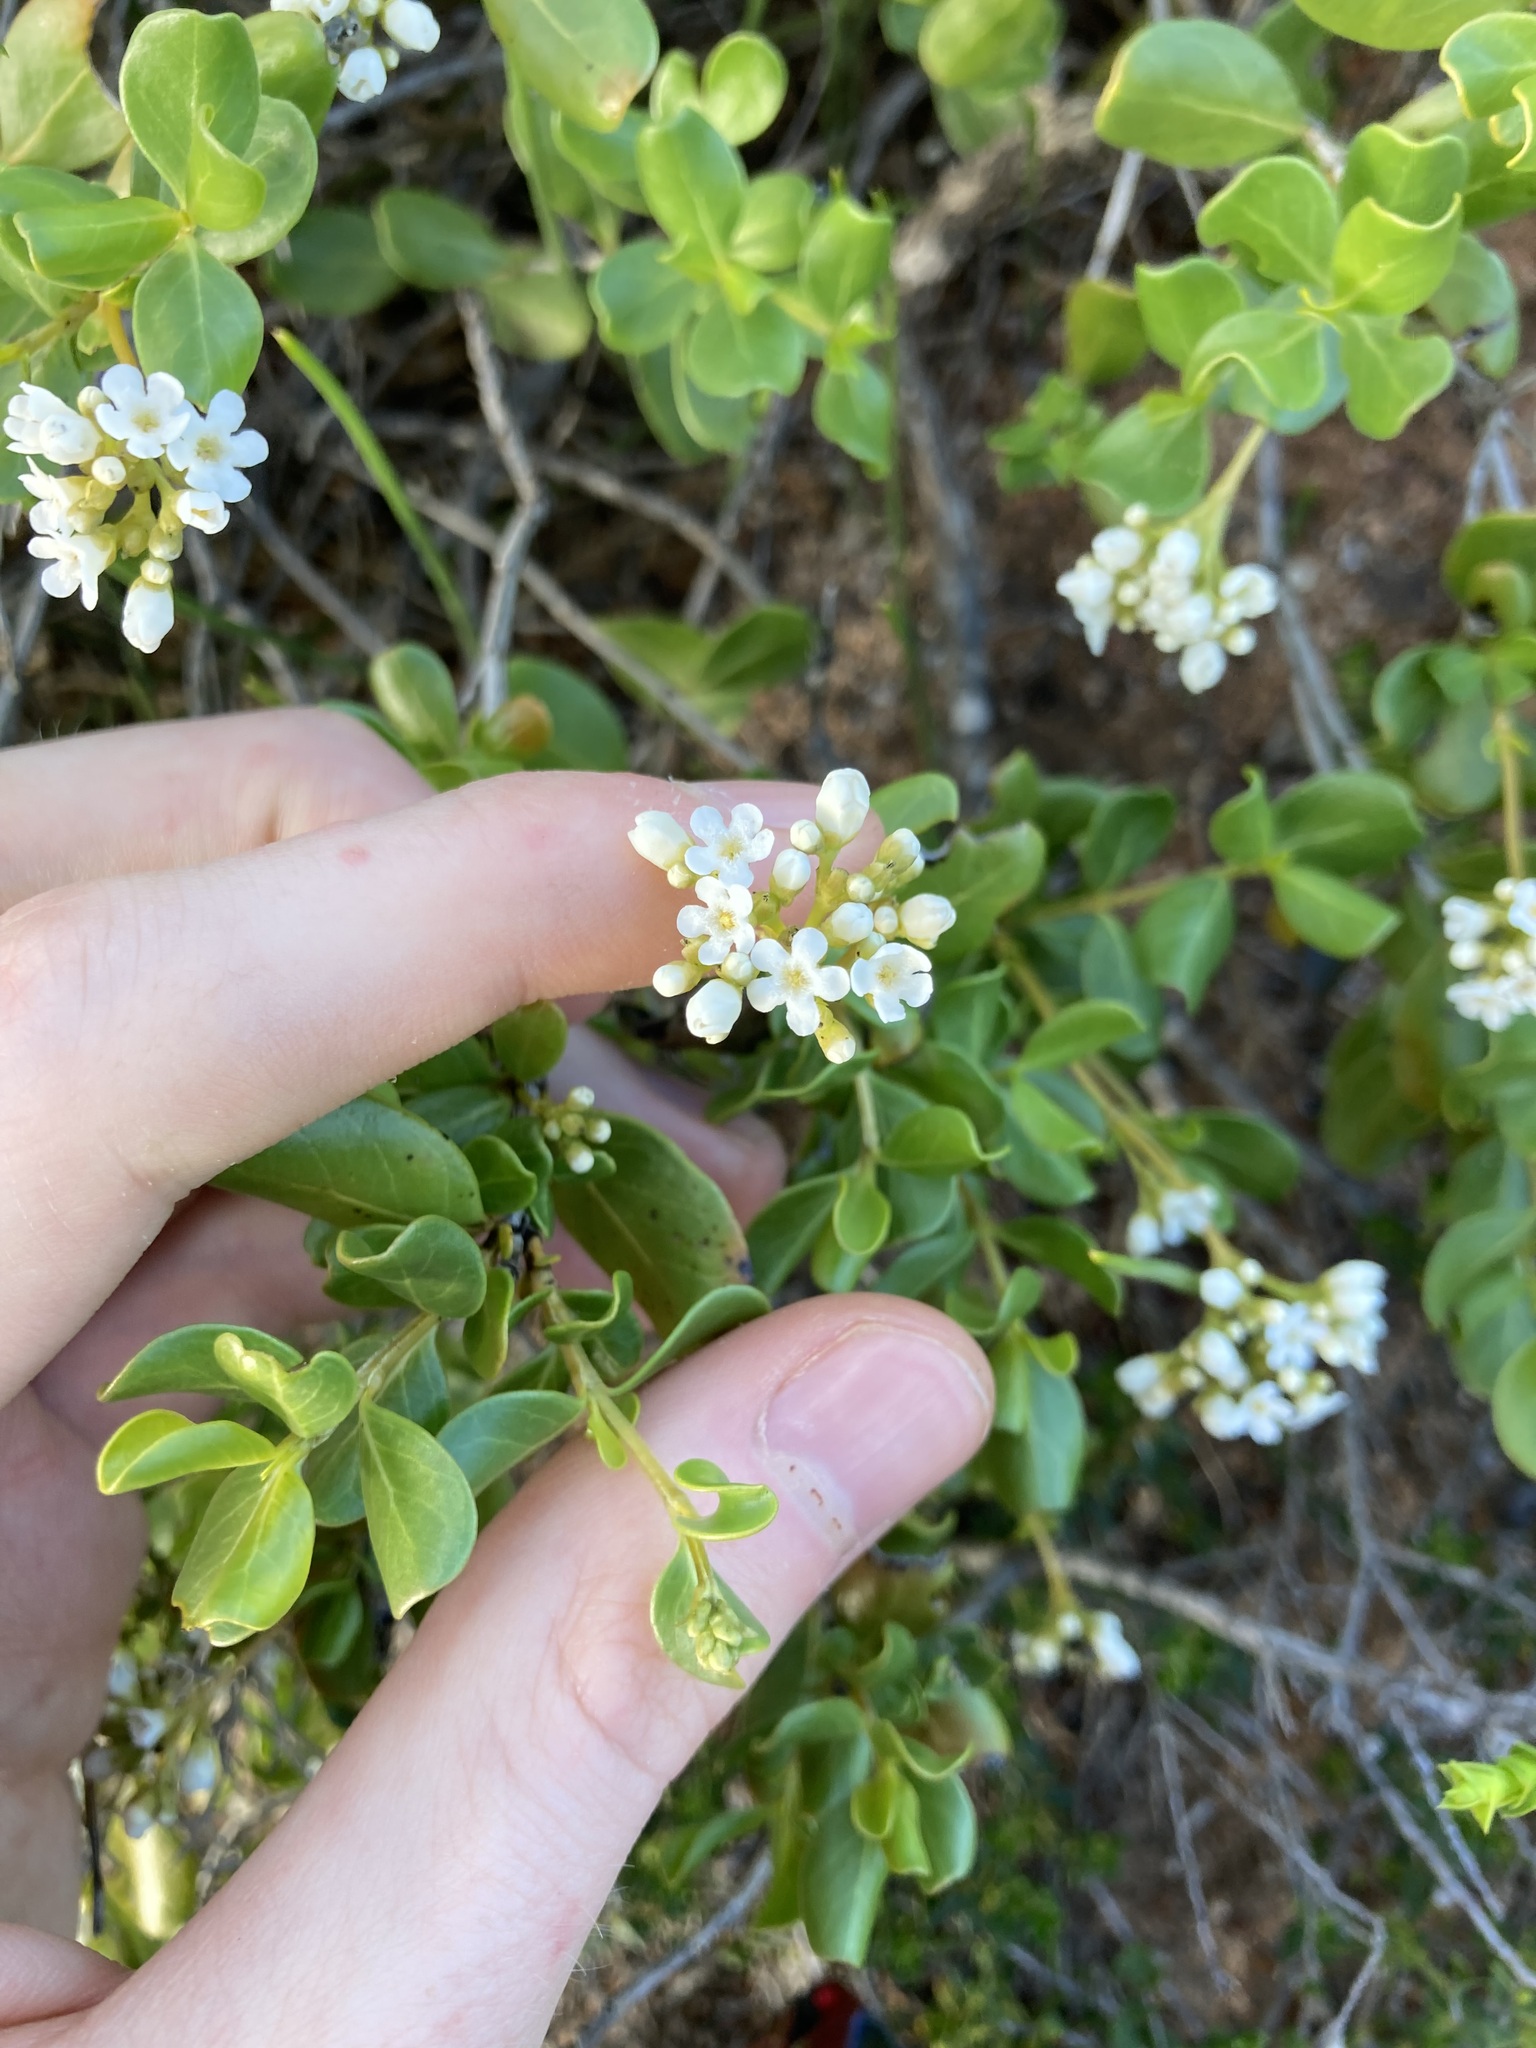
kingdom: Plantae
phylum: Tracheophyta
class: Magnoliopsida
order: Gentianales
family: Loganiaceae
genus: Logania
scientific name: Logania litoralis
